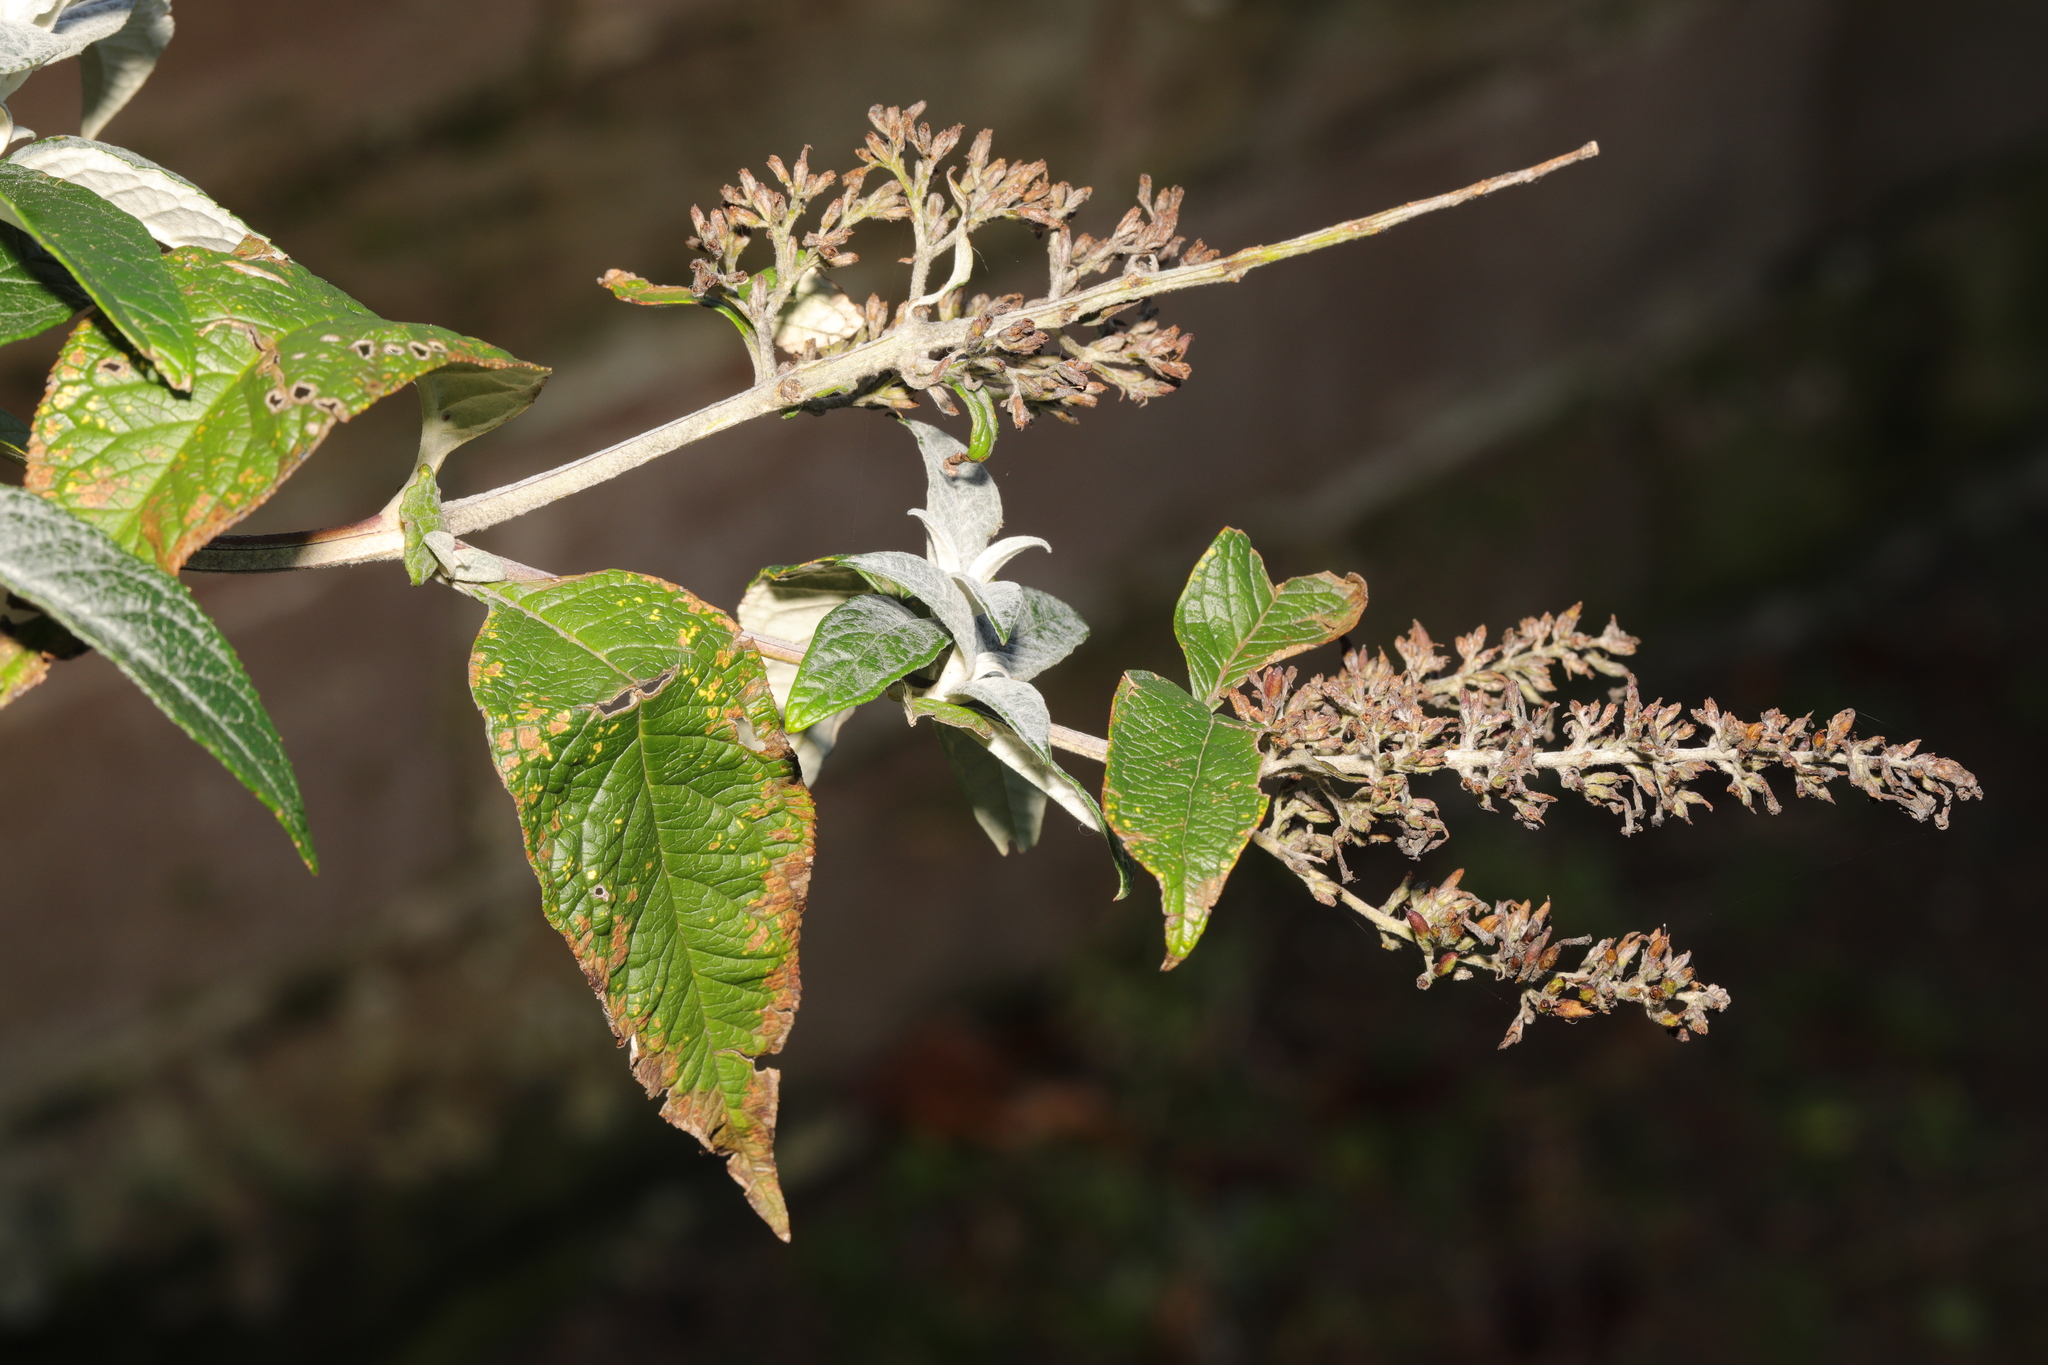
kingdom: Plantae
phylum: Tracheophyta
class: Magnoliopsida
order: Lamiales
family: Scrophulariaceae
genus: Buddleja
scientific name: Buddleja davidii
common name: Butterfly-bush
